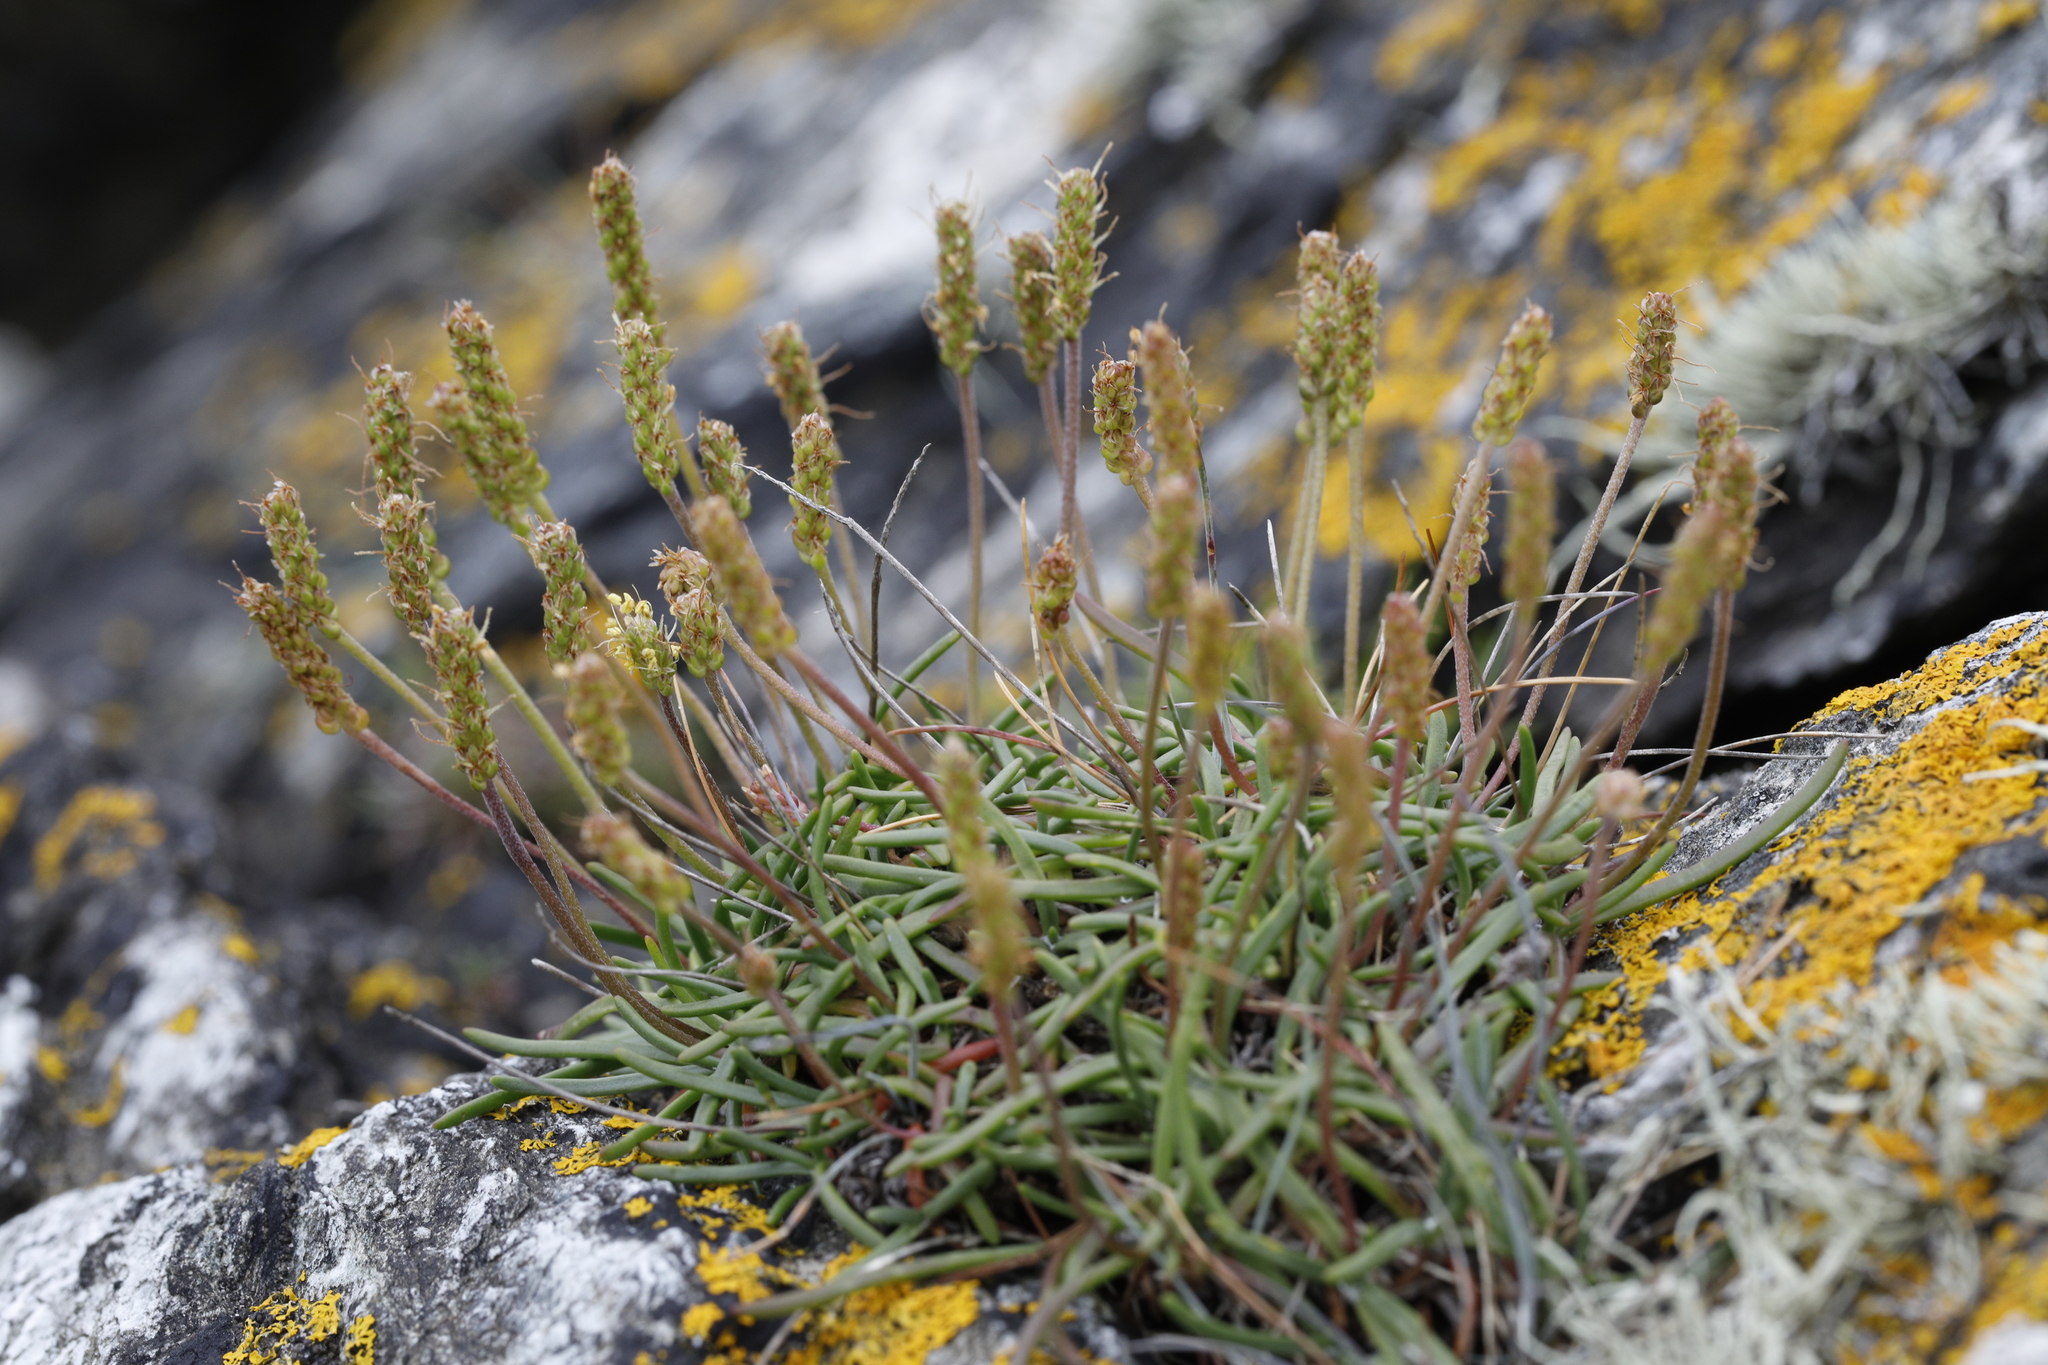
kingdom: Plantae
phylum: Tracheophyta
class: Magnoliopsida
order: Lamiales
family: Plantaginaceae
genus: Plantago
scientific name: Plantago maritima
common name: Sea plantain
